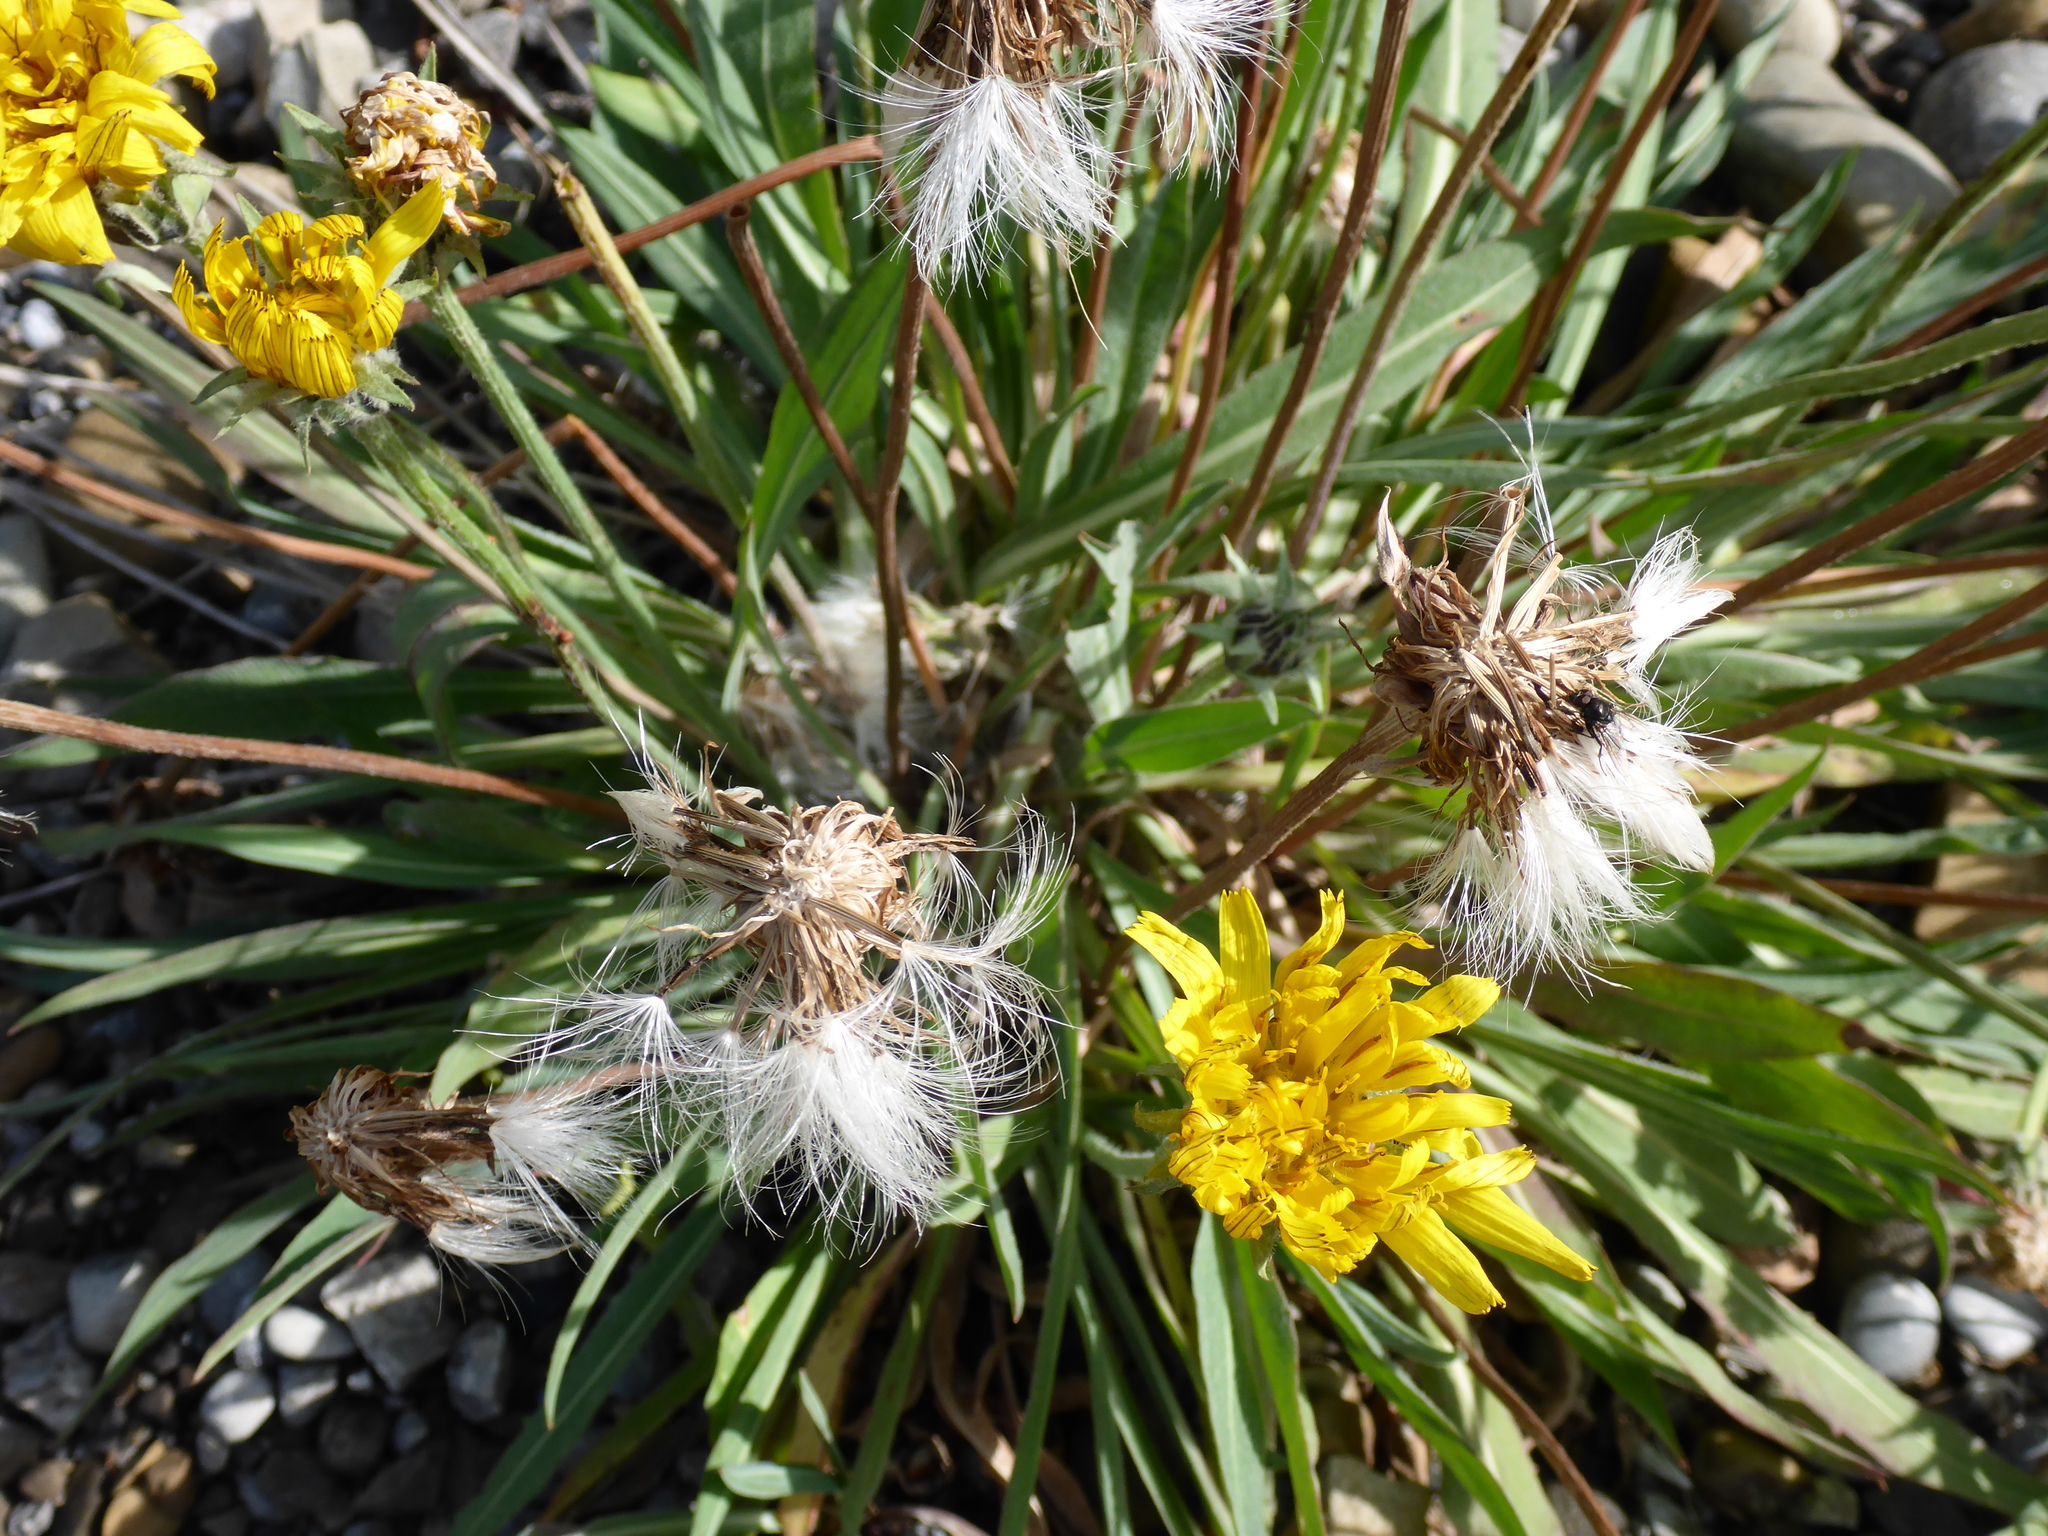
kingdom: Plantae
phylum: Tracheophyta
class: Magnoliopsida
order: Asterales
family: Asteraceae
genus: Agoseris
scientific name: Agoseris glauca
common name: Prairie agoseris
